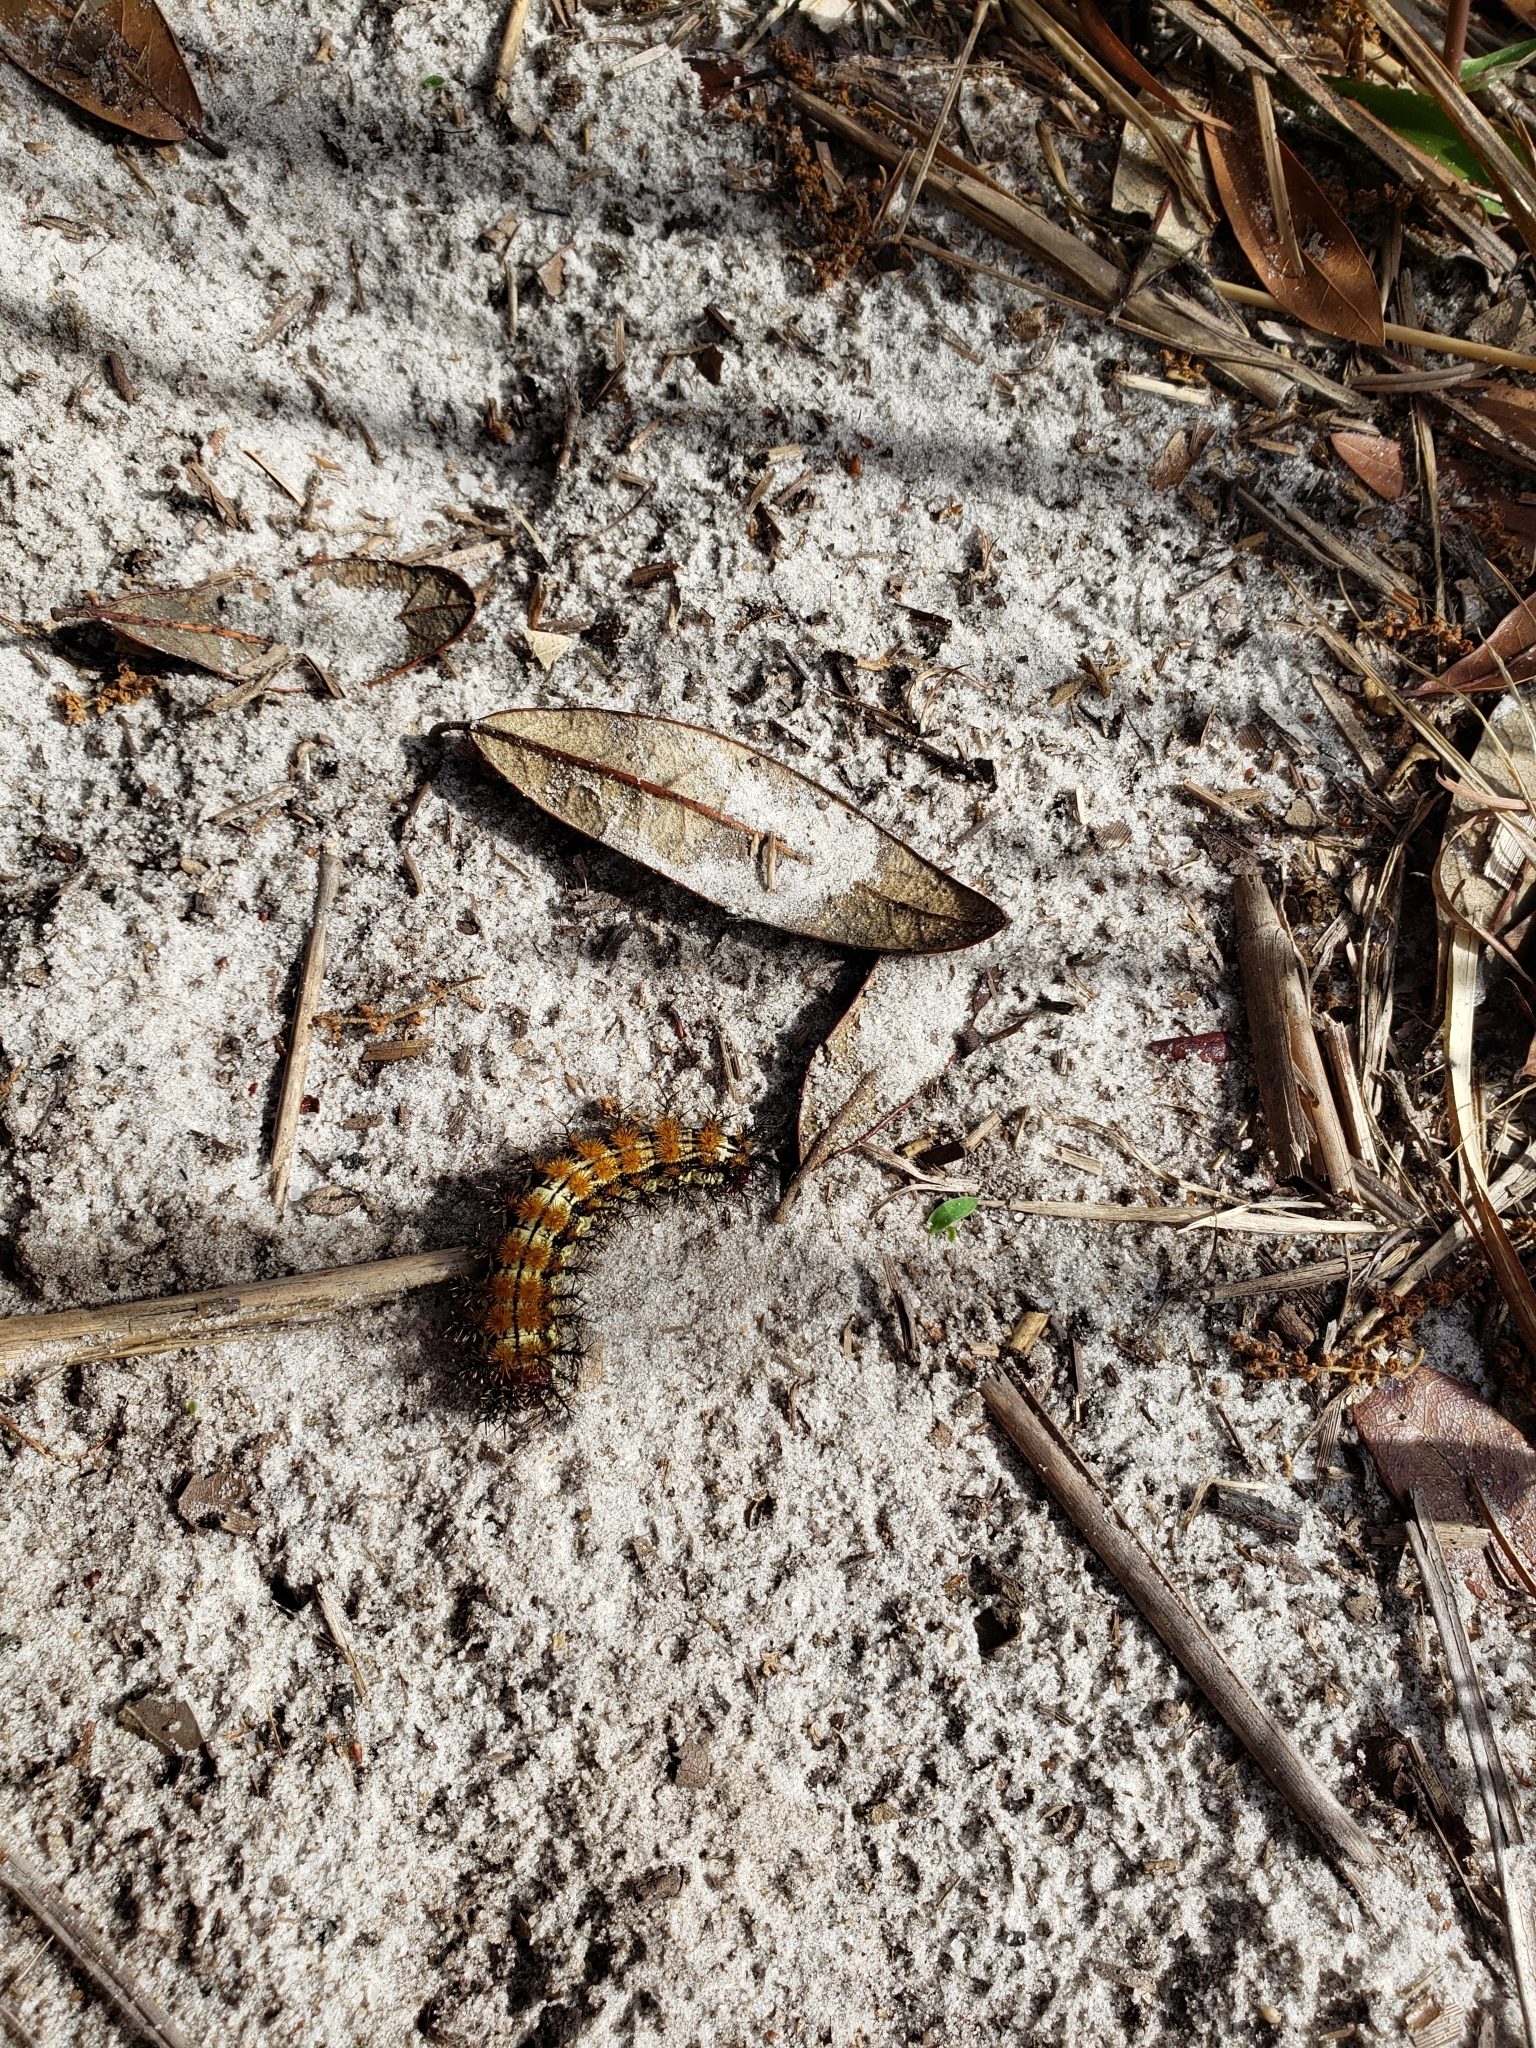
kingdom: Animalia
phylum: Arthropoda
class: Insecta
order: Lepidoptera
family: Saturniidae
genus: Hemileuca
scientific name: Hemileuca maia
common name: Eastern buckmoth
